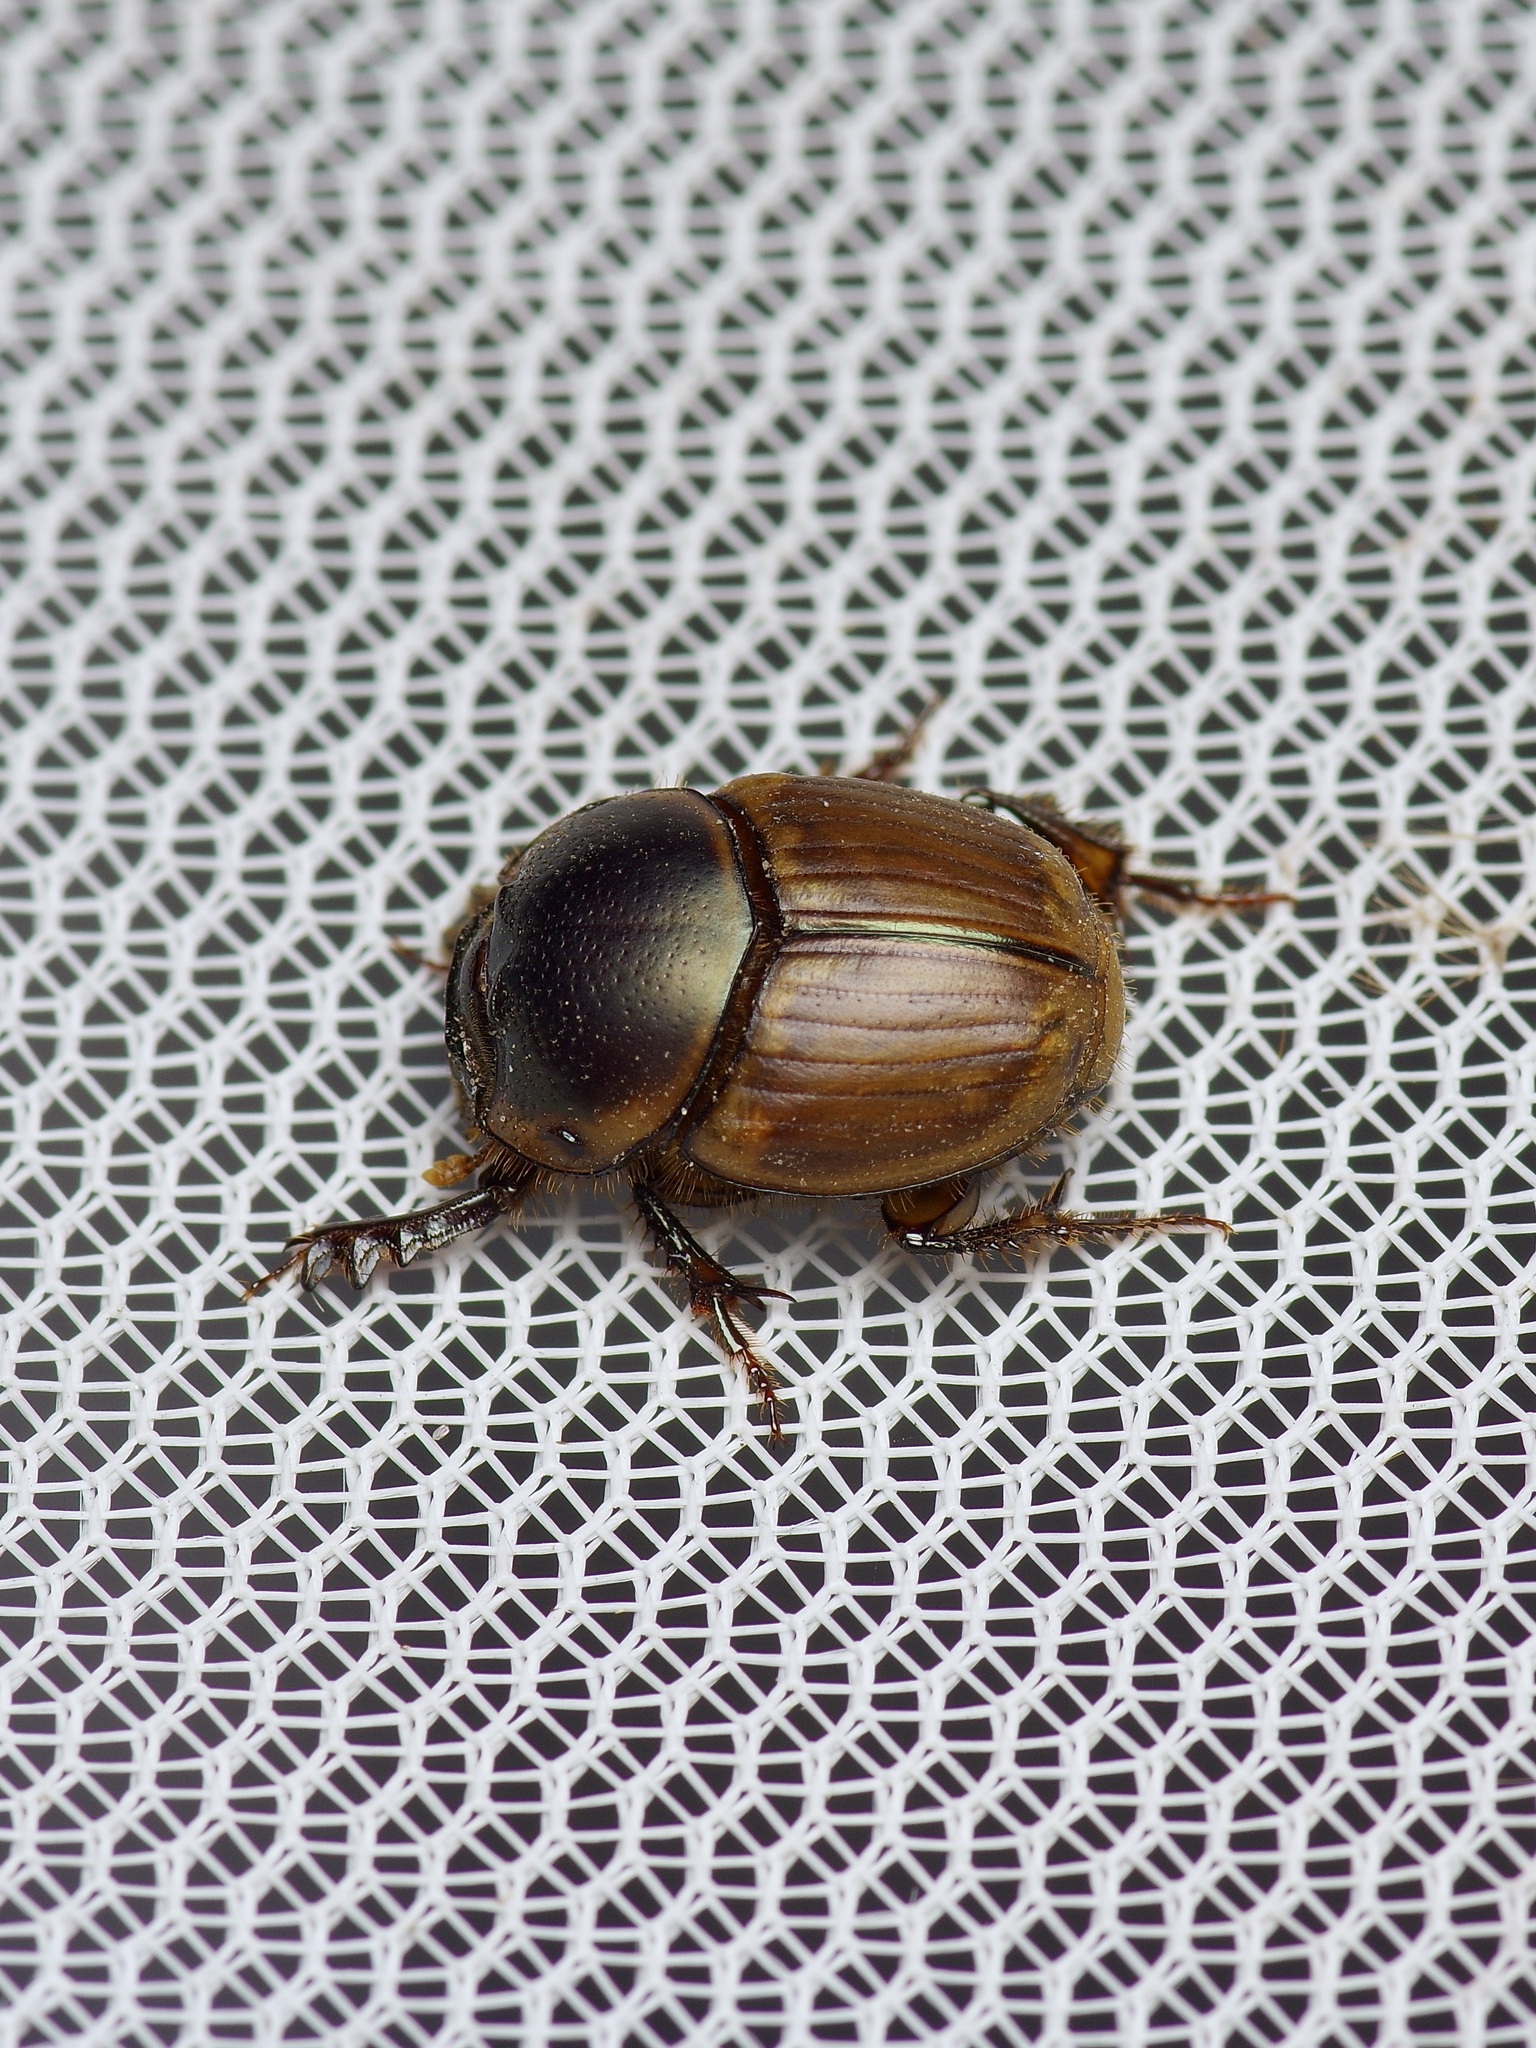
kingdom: Animalia
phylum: Arthropoda
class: Insecta
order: Coleoptera
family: Scarabaeidae
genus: Digitonthophagus
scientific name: Digitonthophagus gazella
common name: Brown dung beetle
